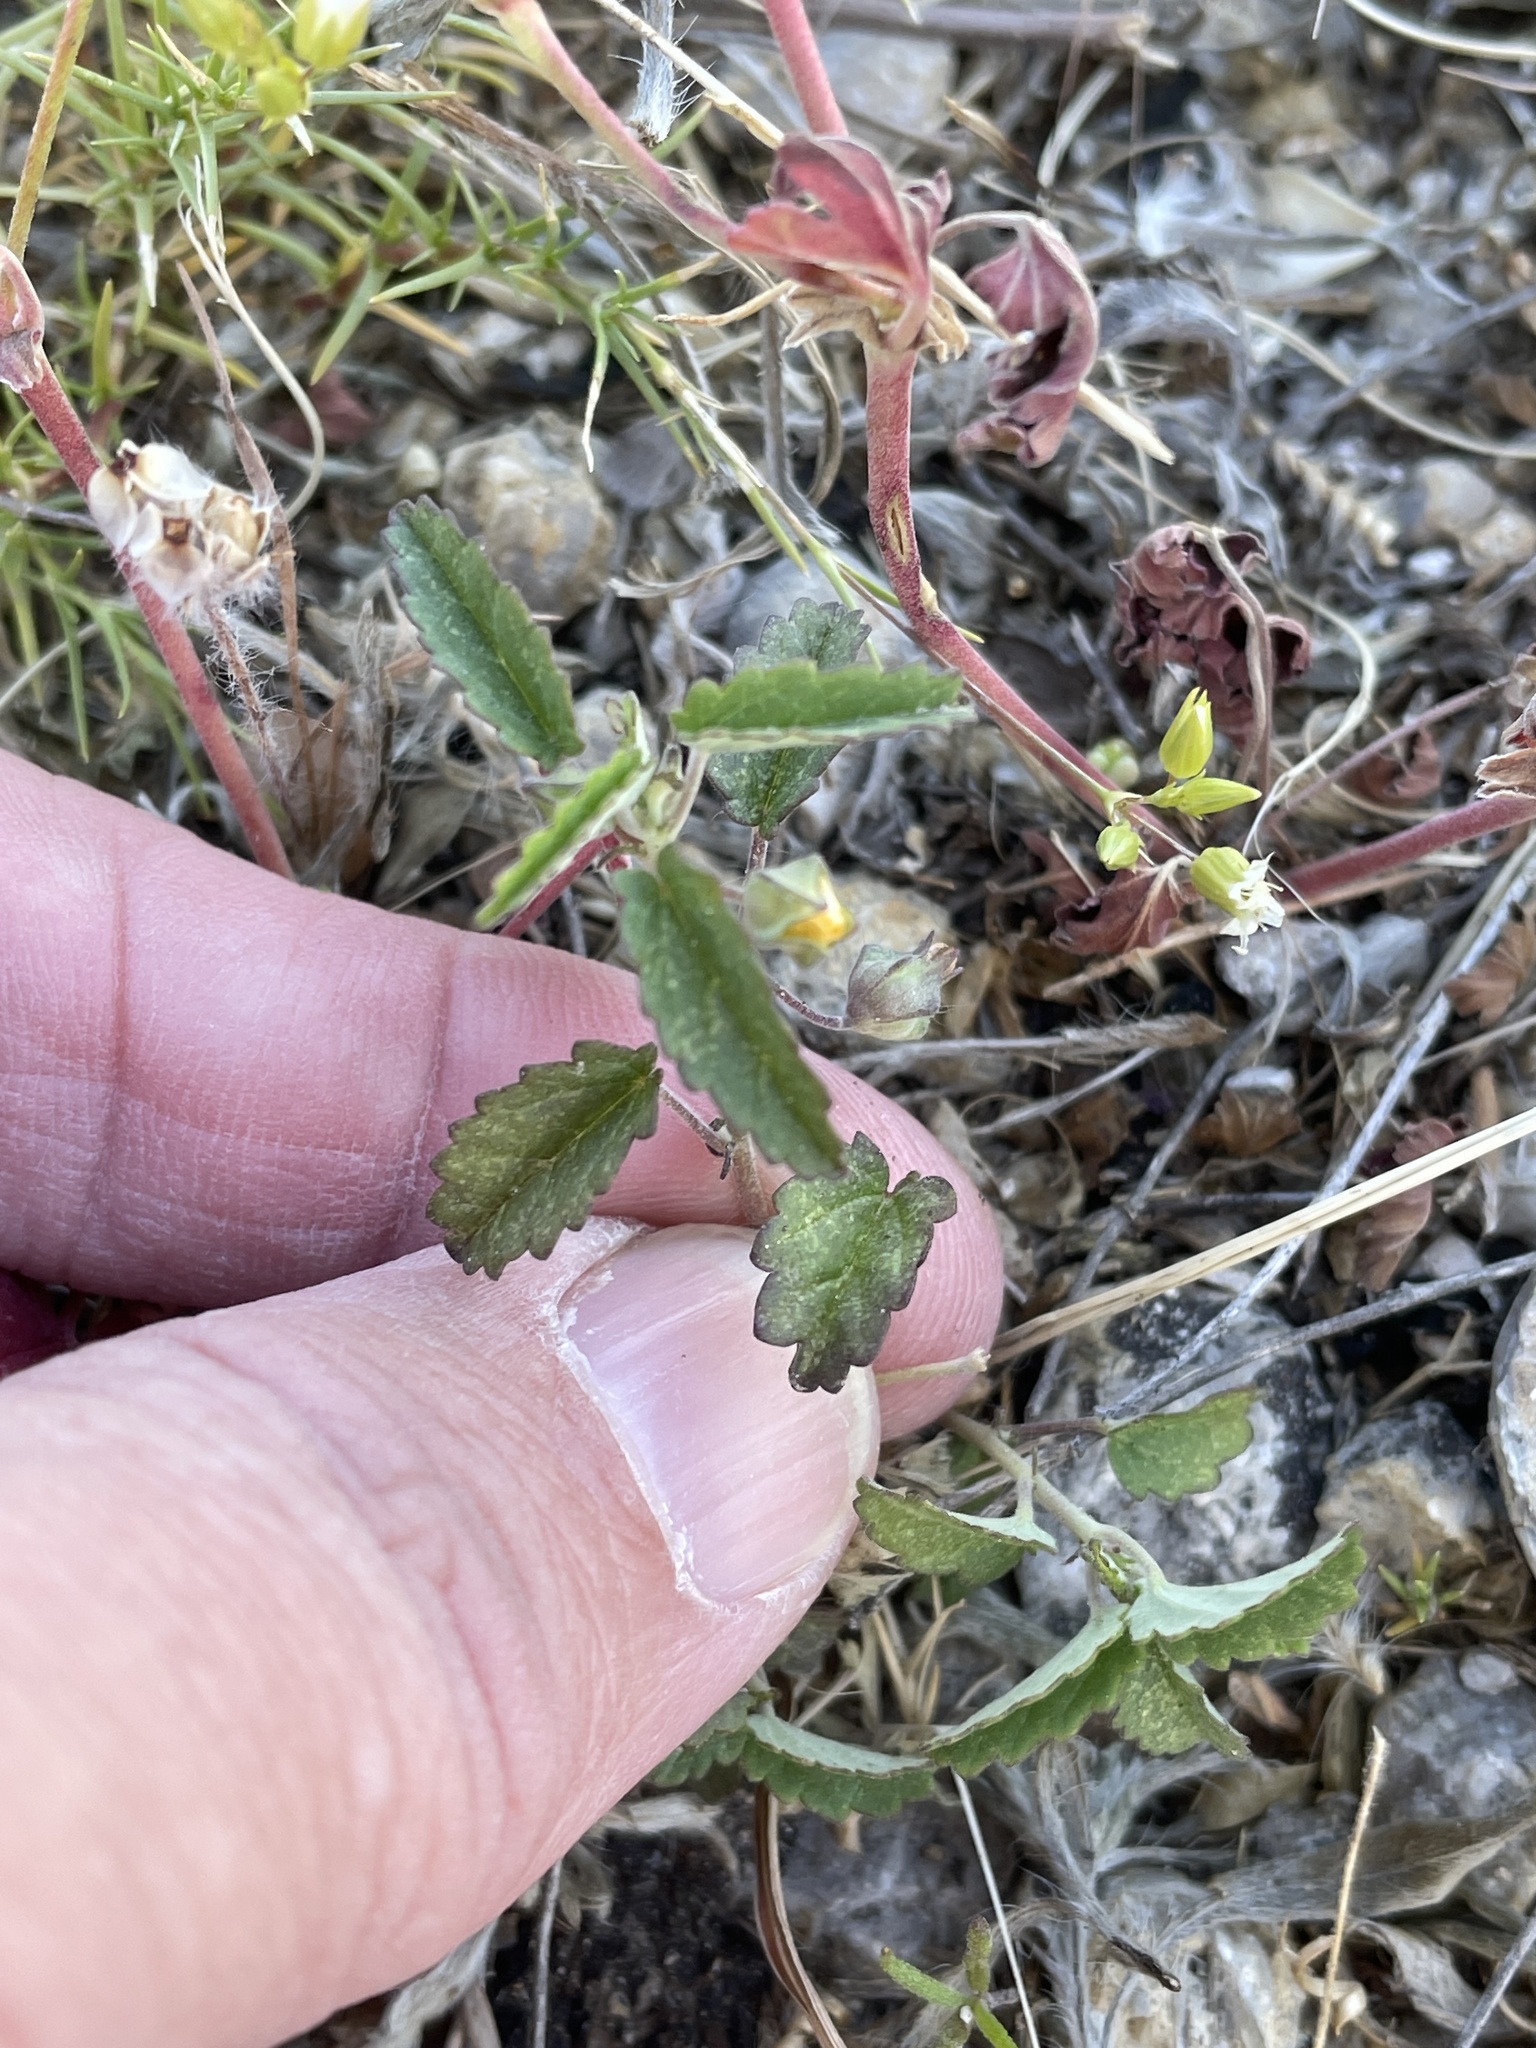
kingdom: Plantae
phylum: Tracheophyta
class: Magnoliopsida
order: Malvales
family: Malvaceae
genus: Sida
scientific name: Sida abutilifolia
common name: Spreading fanpetals
